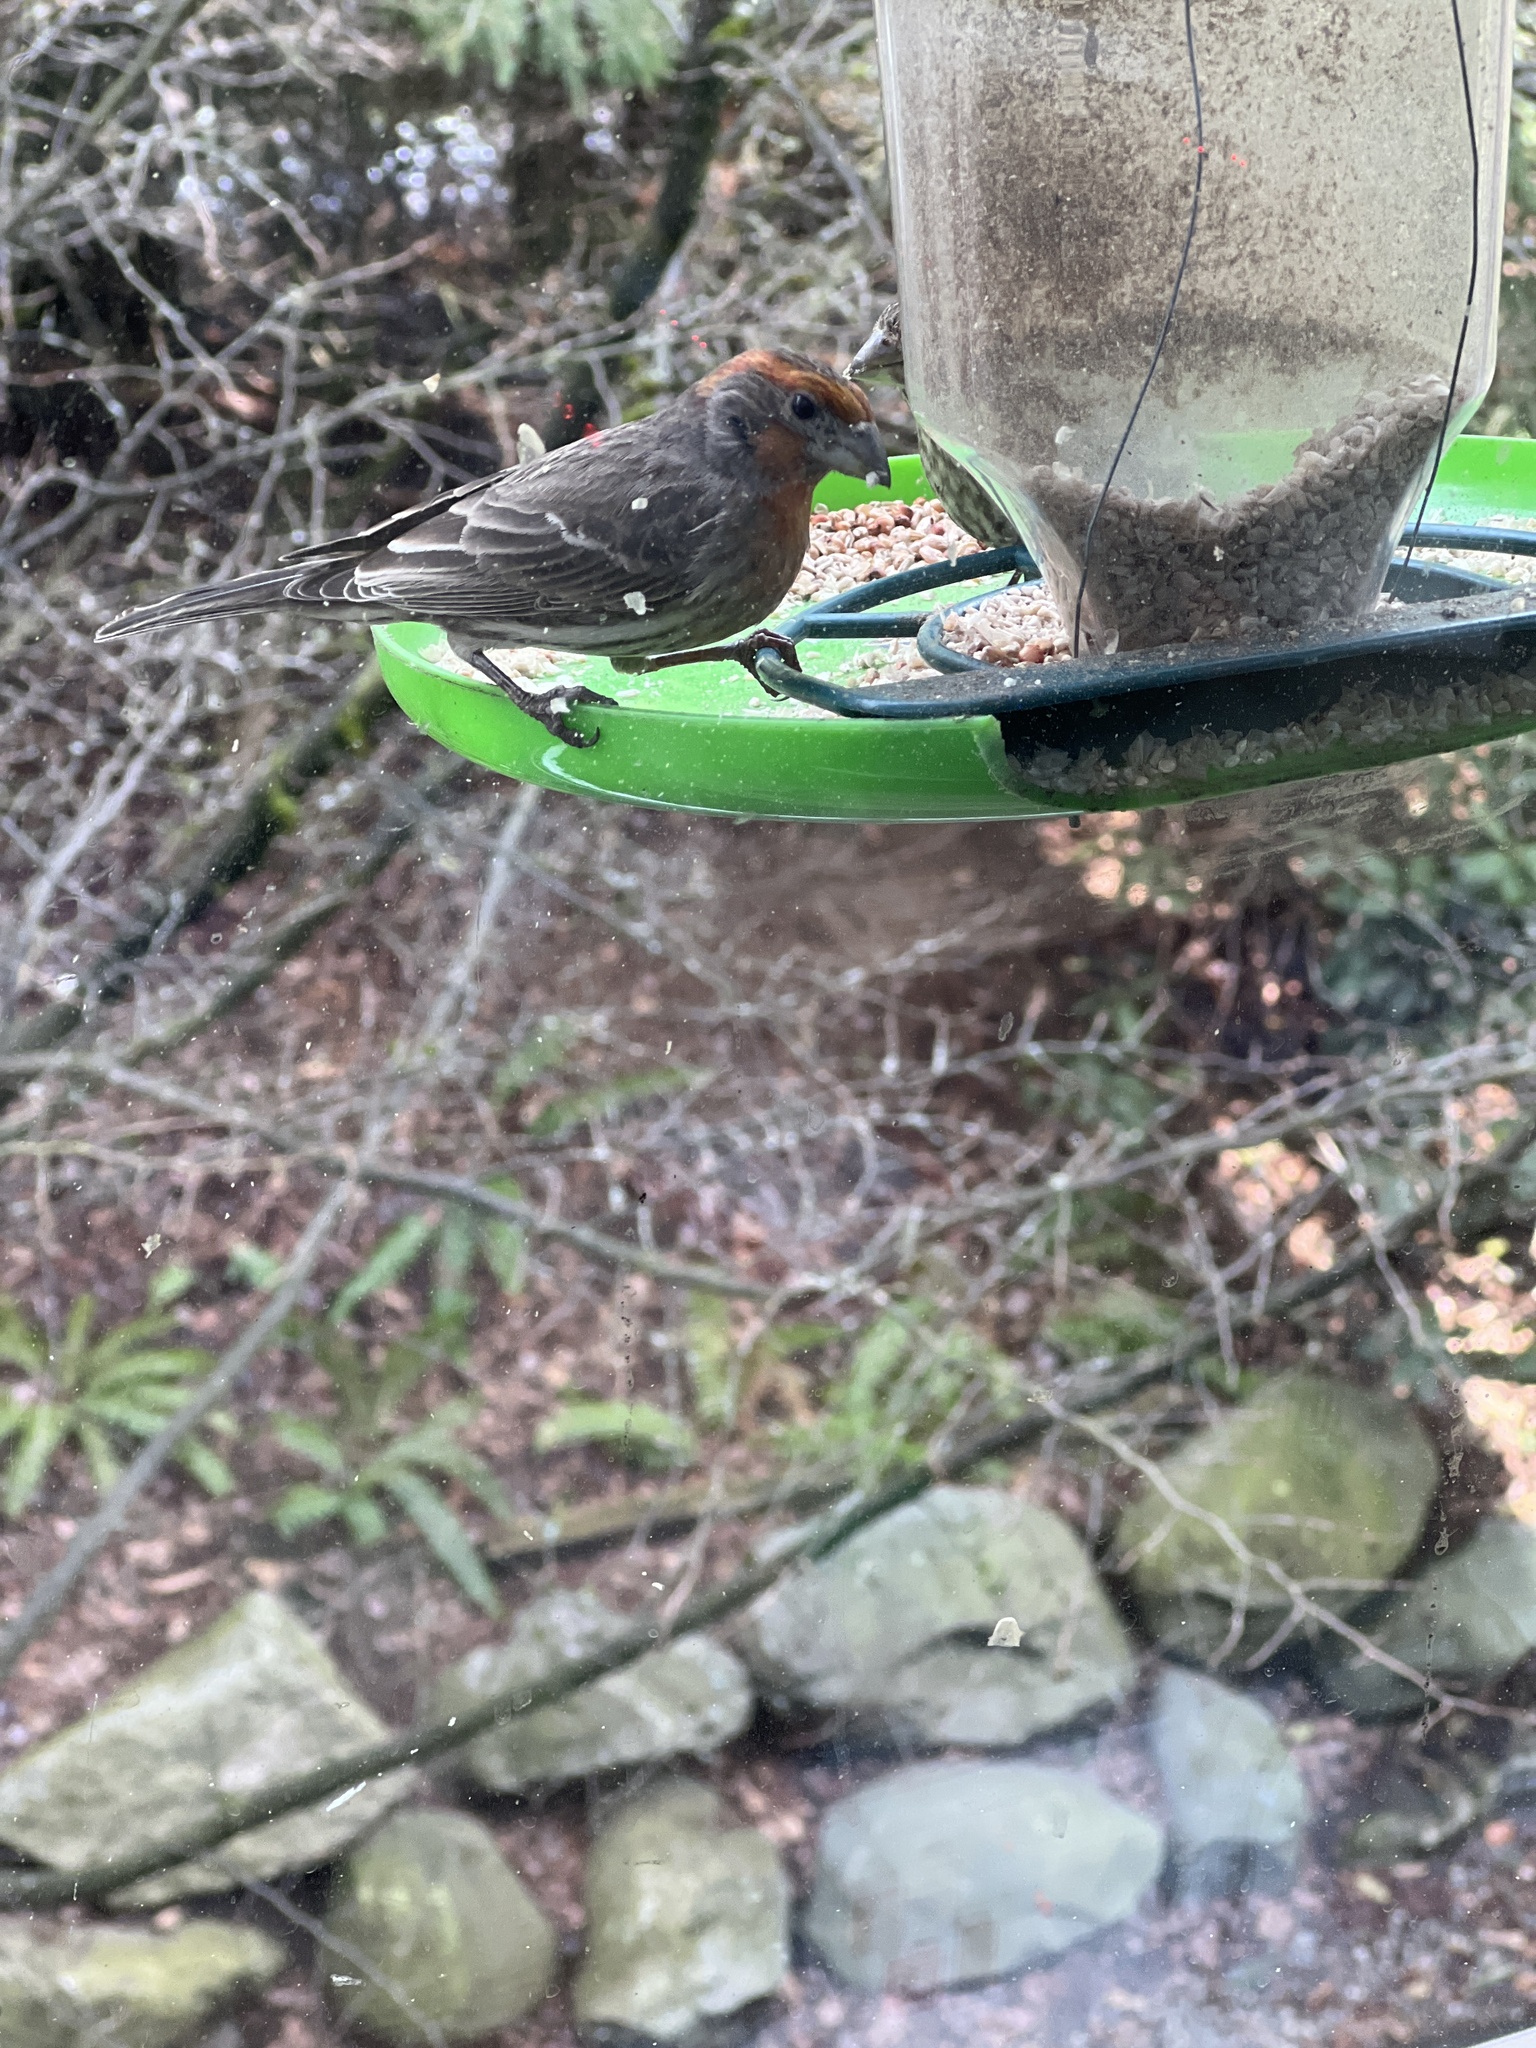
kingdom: Animalia
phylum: Chordata
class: Aves
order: Passeriformes
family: Fringillidae
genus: Haemorhous
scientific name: Haemorhous mexicanus
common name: House finch
